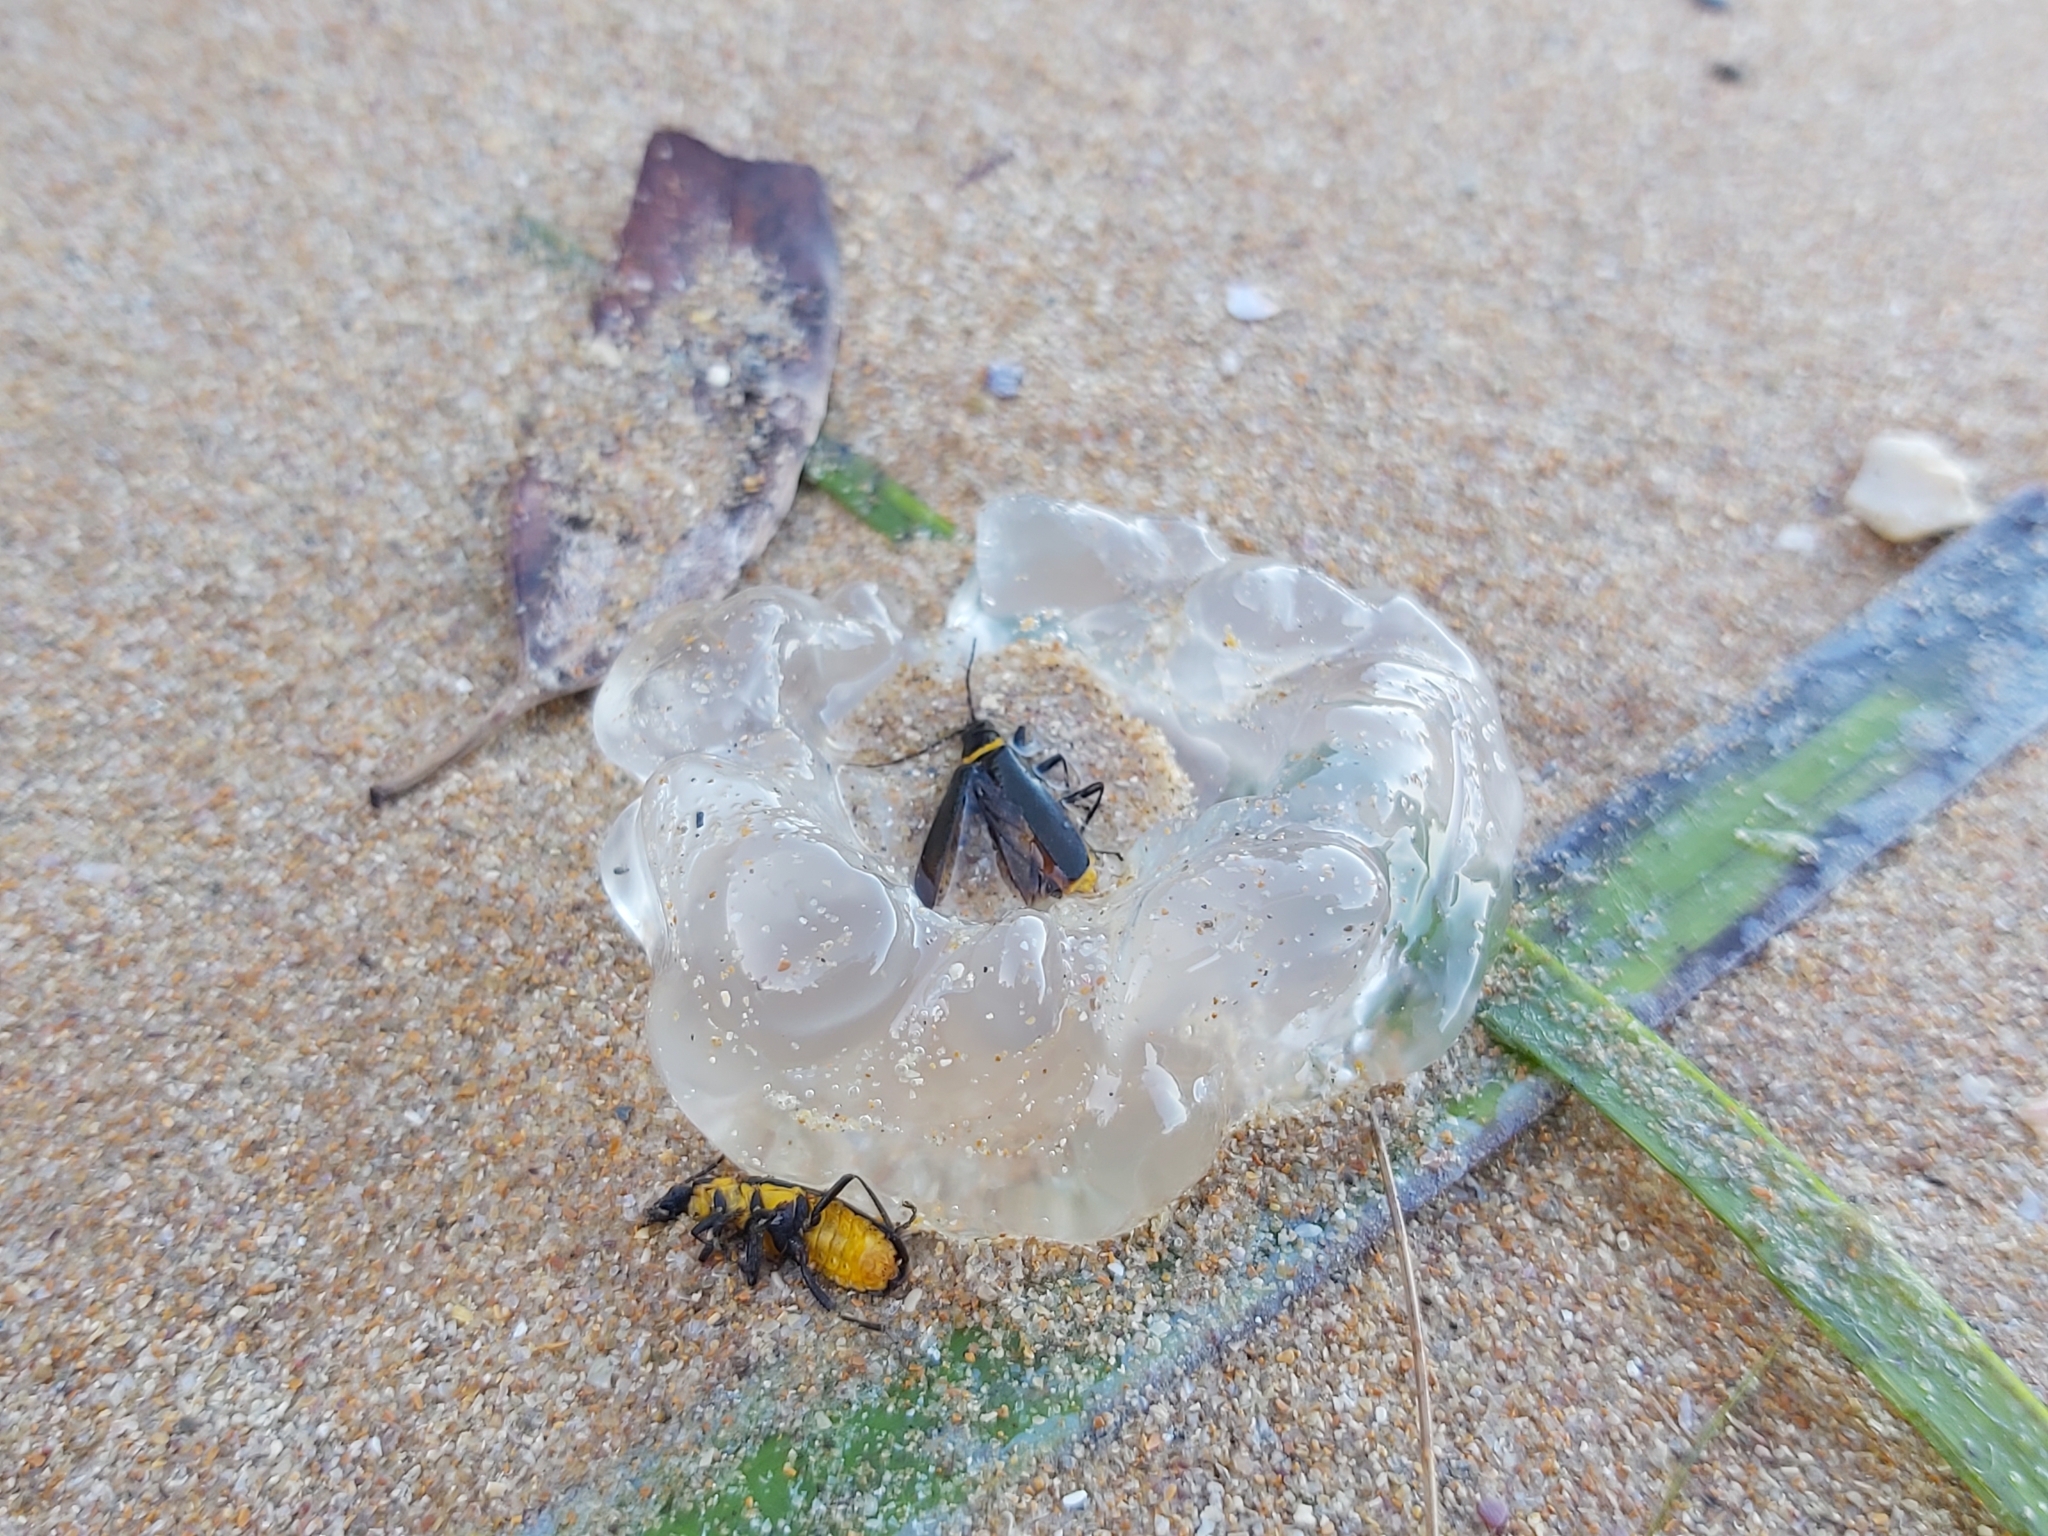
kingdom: Animalia
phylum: Arthropoda
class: Insecta
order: Coleoptera
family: Cantharidae
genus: Chauliognathus
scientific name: Chauliognathus
